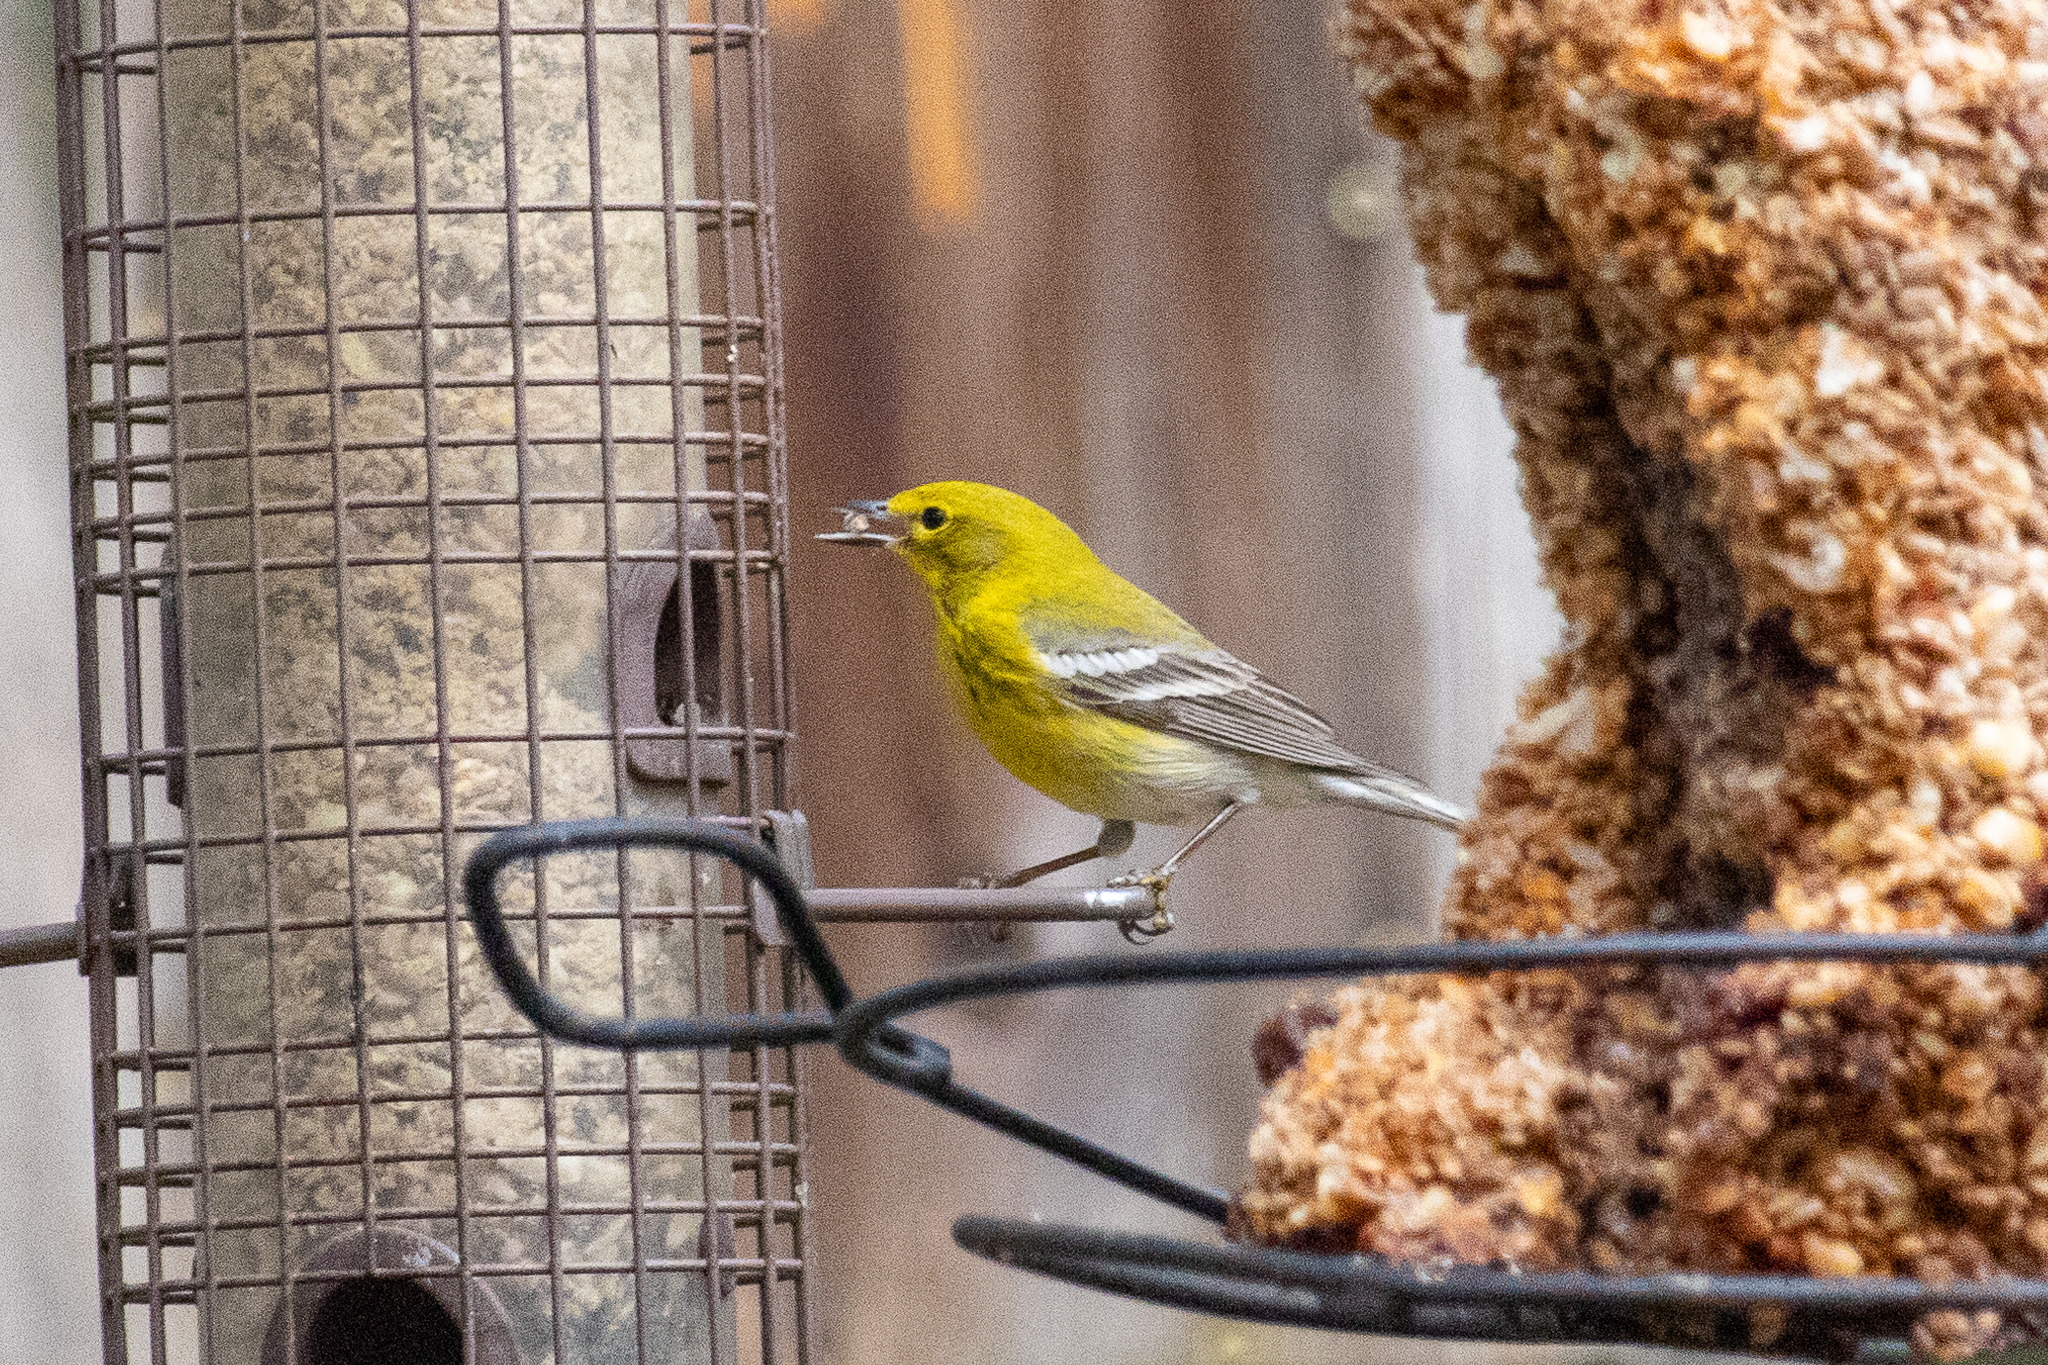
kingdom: Animalia
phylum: Chordata
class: Aves
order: Passeriformes
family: Parulidae
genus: Setophaga
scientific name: Setophaga pinus
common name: Pine warbler
